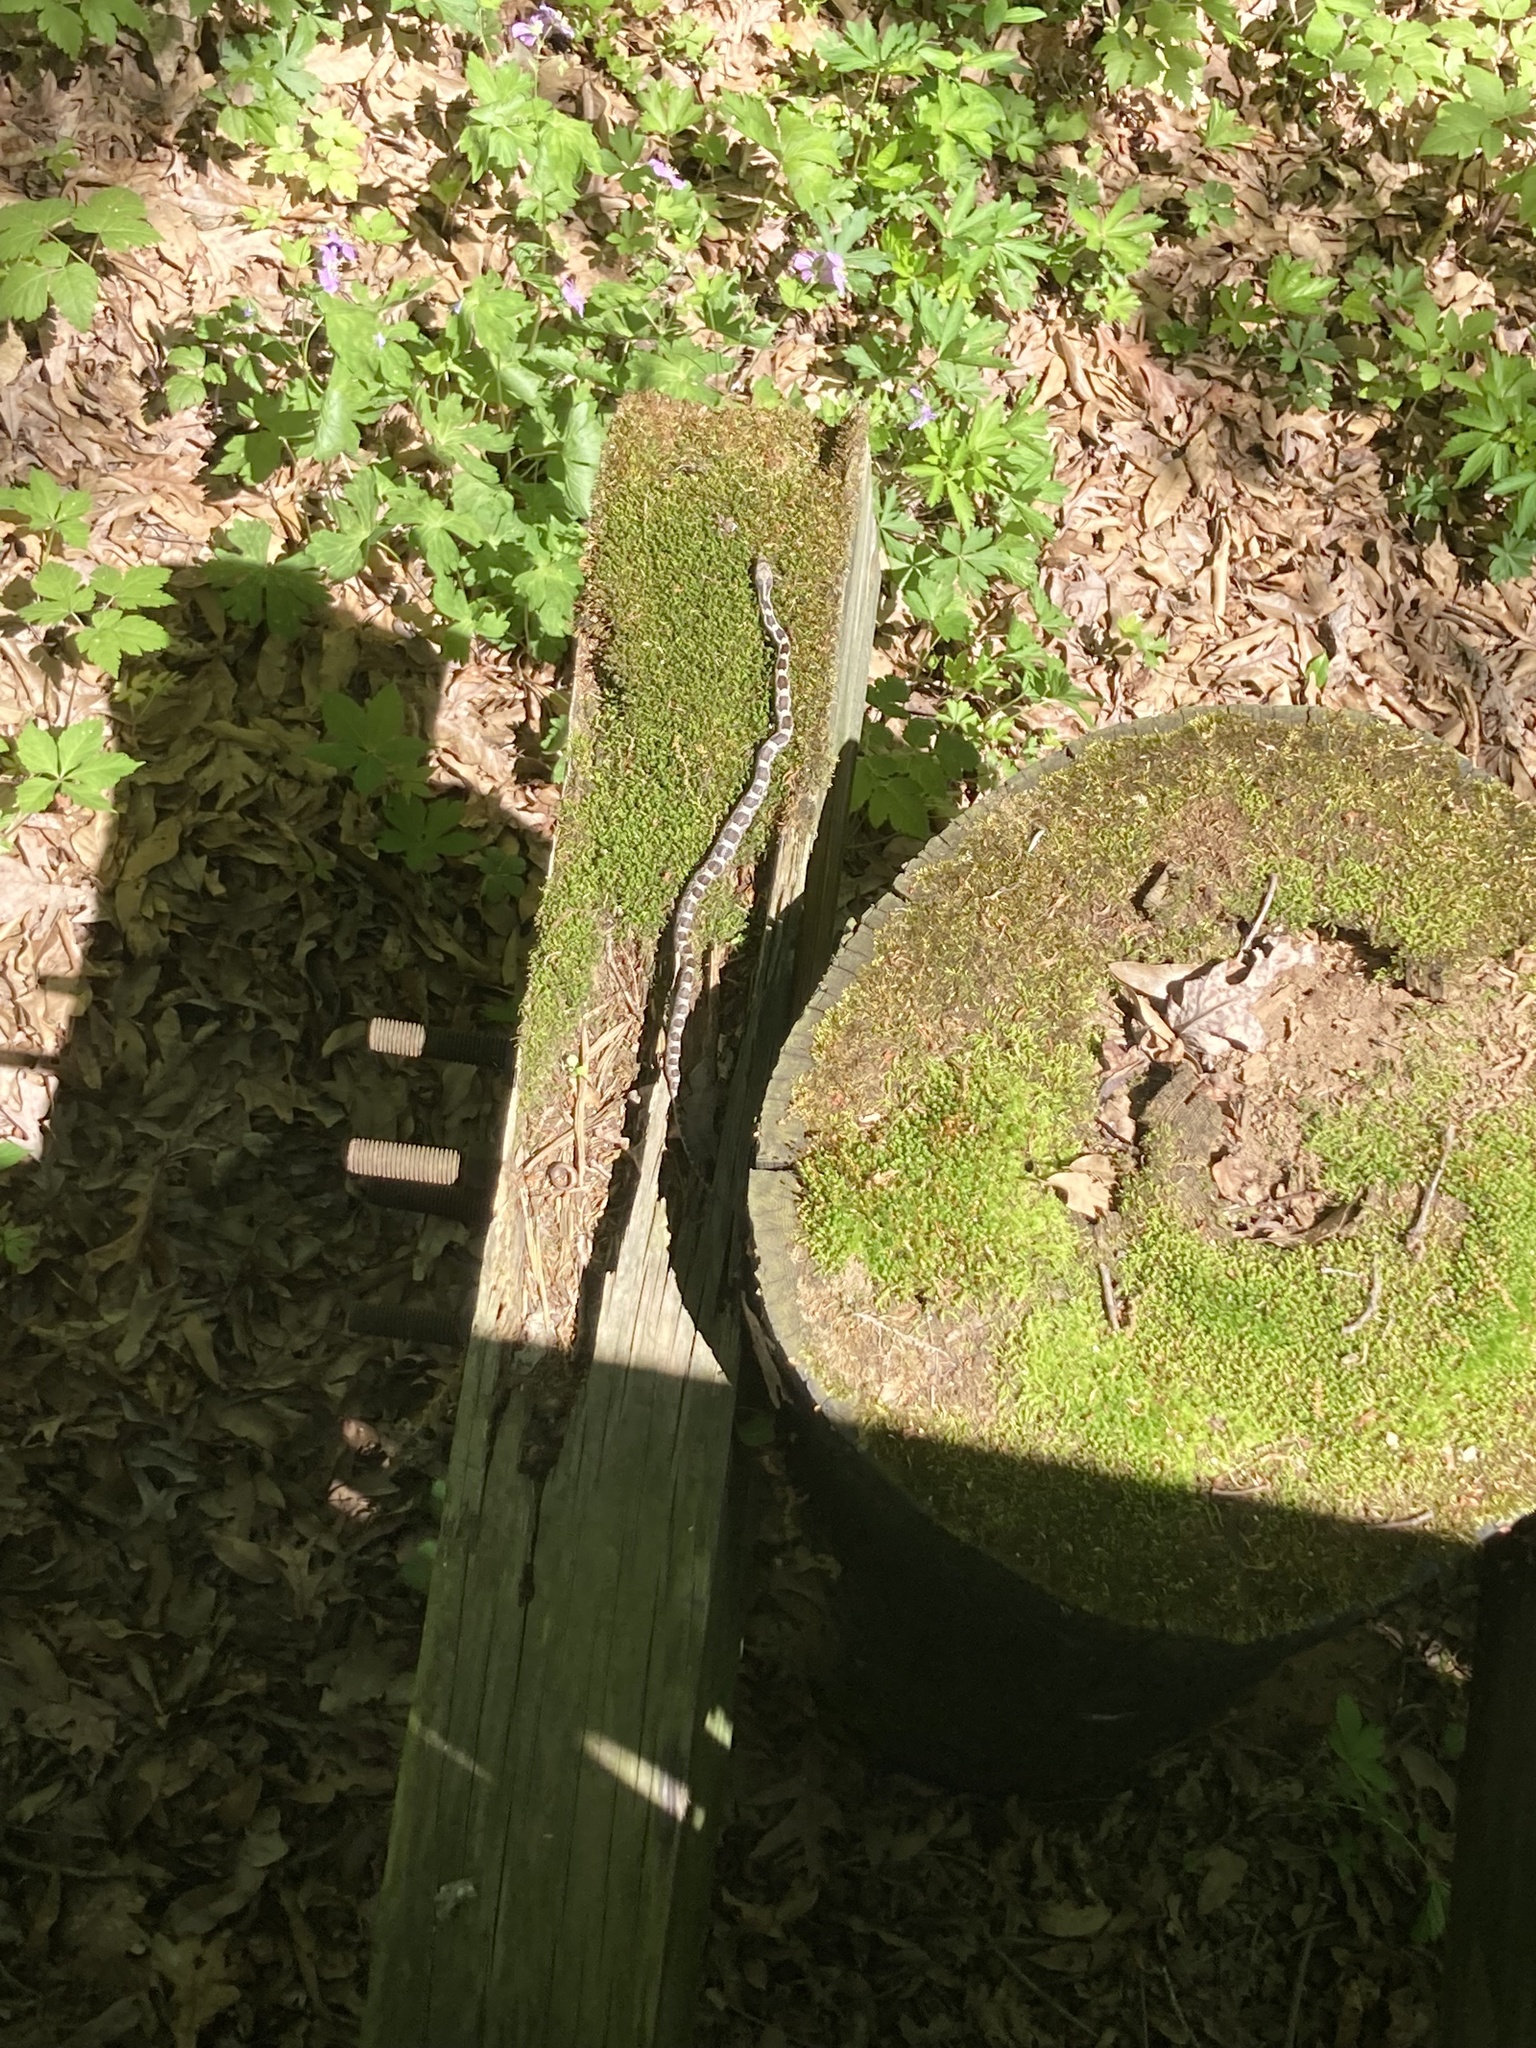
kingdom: Animalia
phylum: Chordata
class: Squamata
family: Colubridae
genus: Pantherophis
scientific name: Pantherophis spiloides
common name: Gray rat snake
